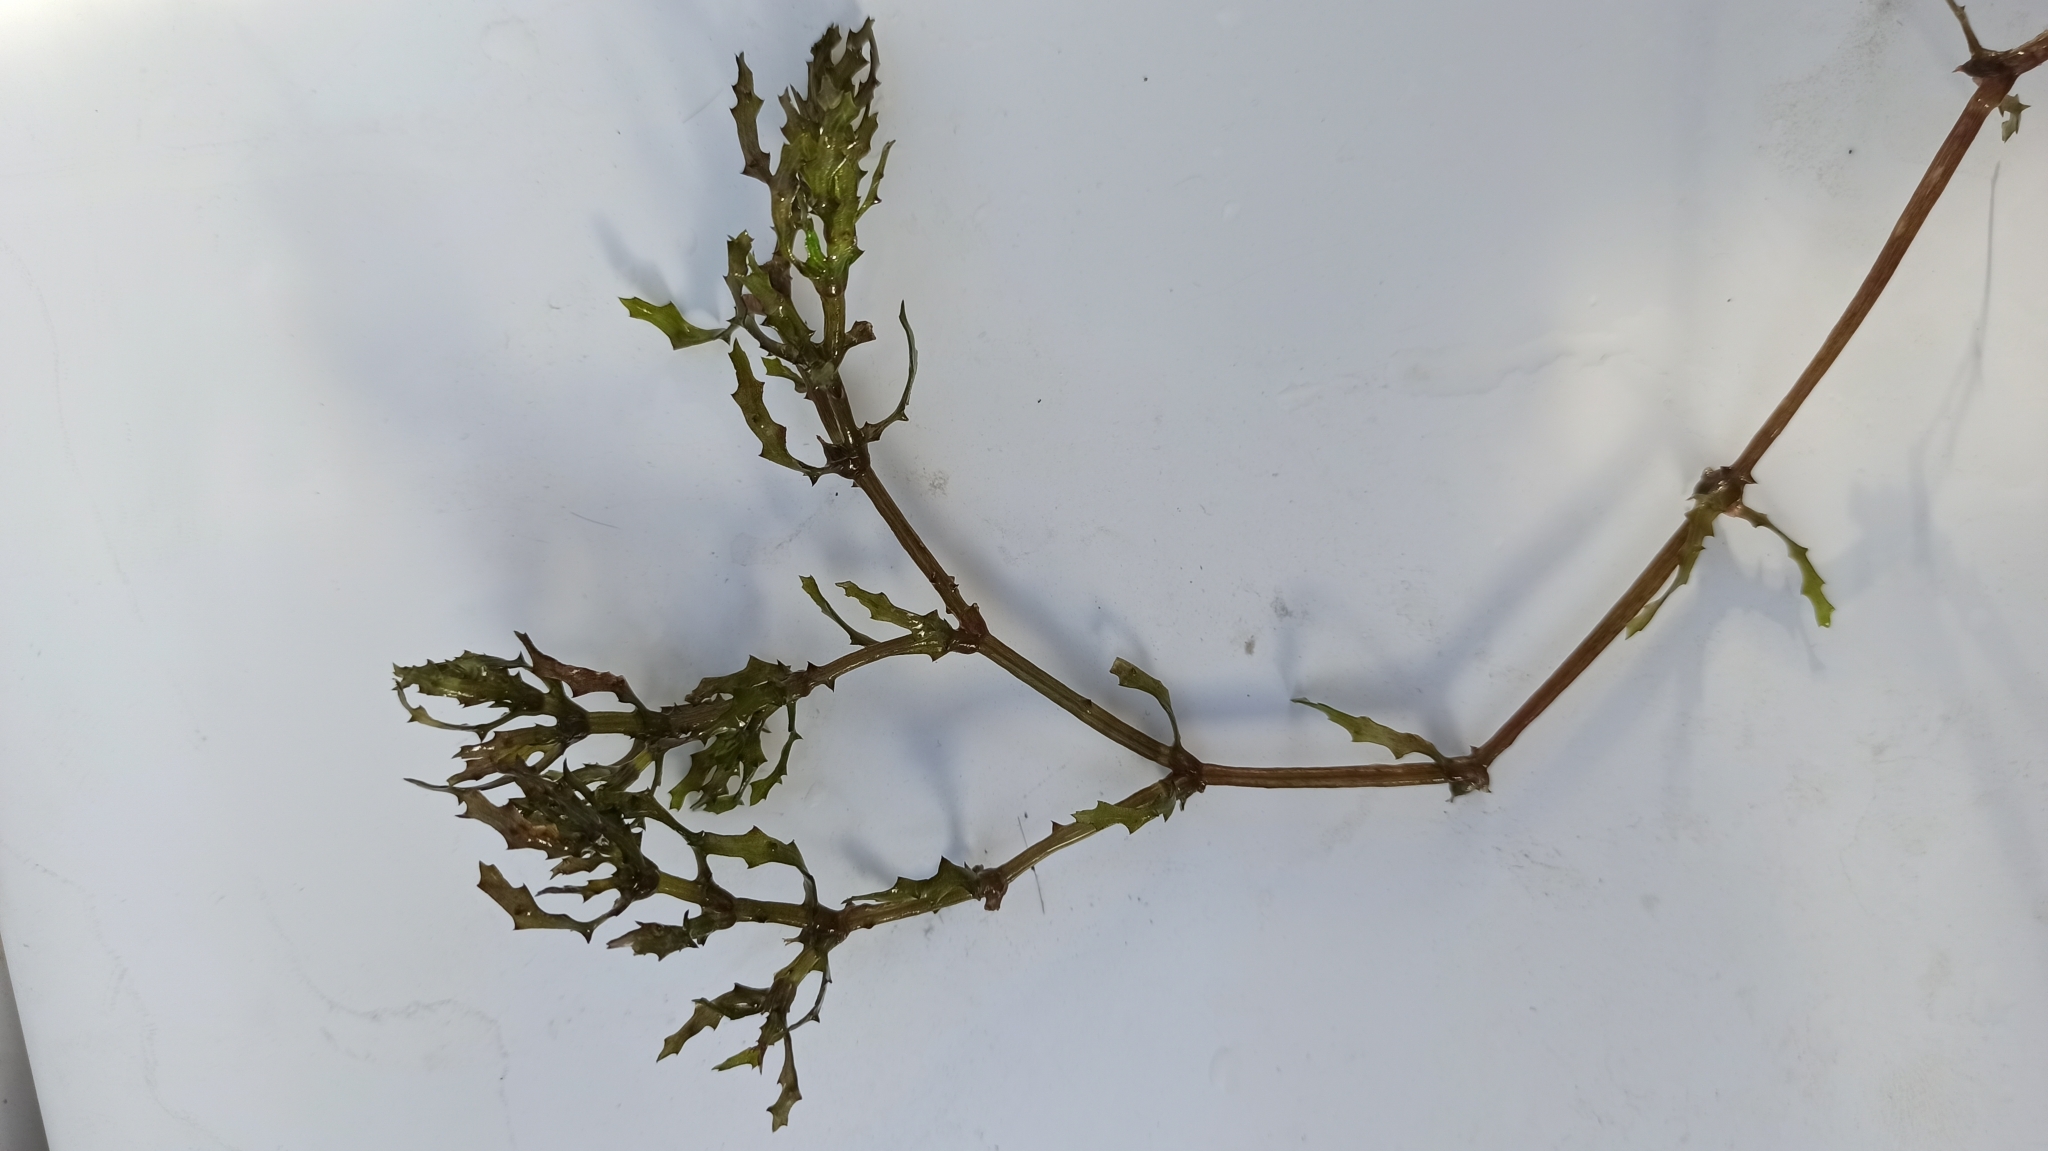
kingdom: Plantae
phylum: Tracheophyta
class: Liliopsida
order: Alismatales
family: Hydrocharitaceae
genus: Najas
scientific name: Najas marina
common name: Holly-leaved naiad
